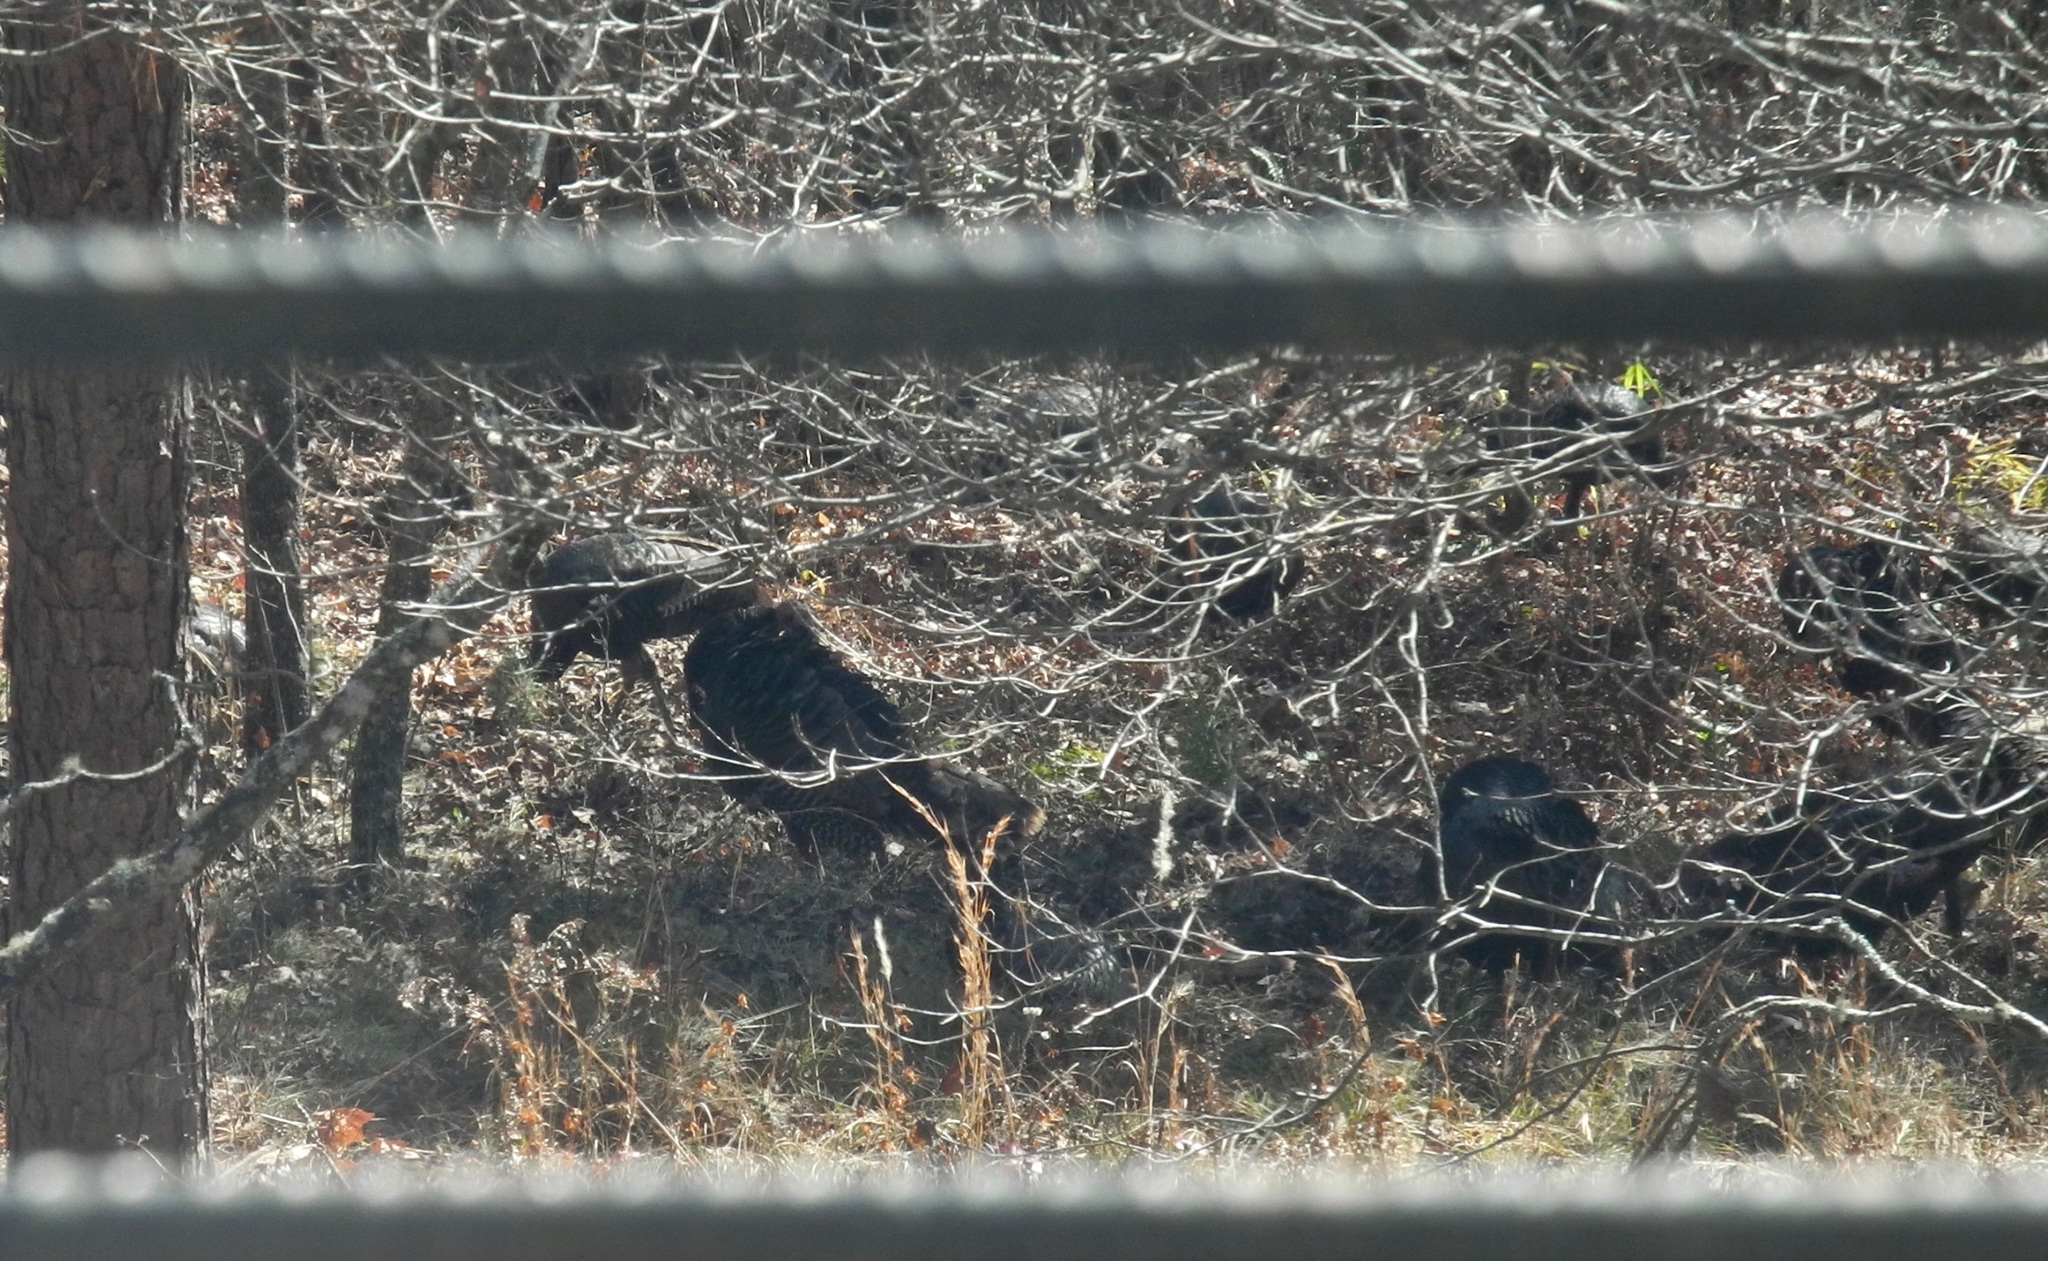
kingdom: Animalia
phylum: Chordata
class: Aves
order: Galliformes
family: Phasianidae
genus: Meleagris
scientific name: Meleagris gallopavo
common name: Wild turkey
